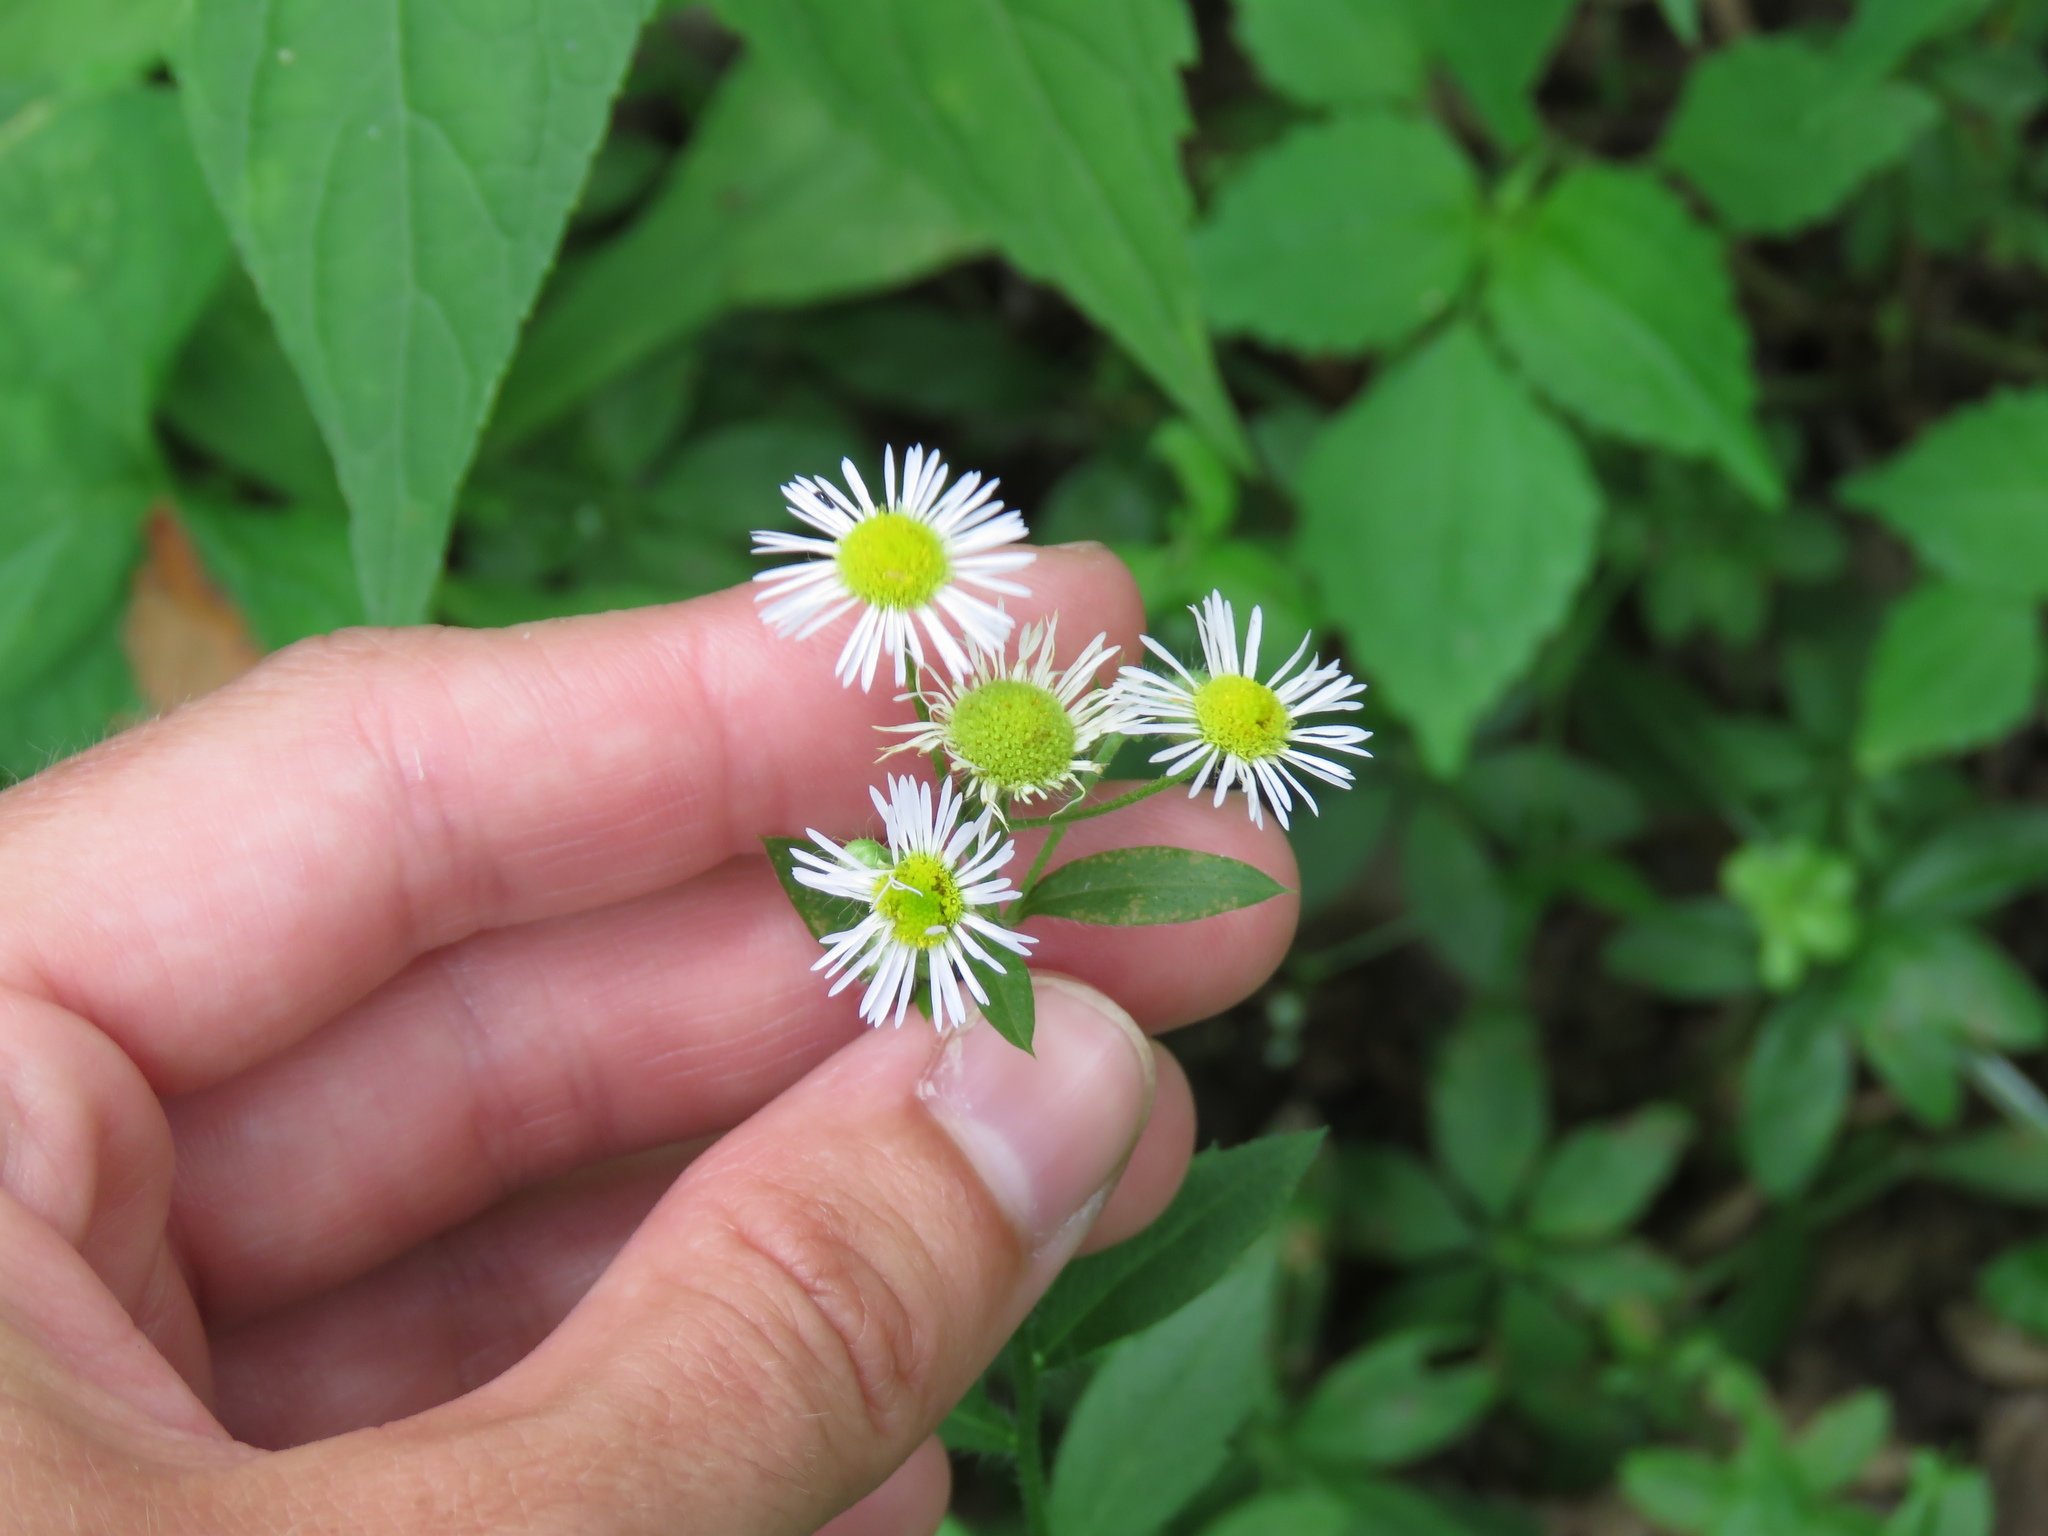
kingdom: Plantae
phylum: Tracheophyta
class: Magnoliopsida
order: Asterales
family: Asteraceae
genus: Erigeron
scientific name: Erigeron strigosus
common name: Common eastern fleabane
